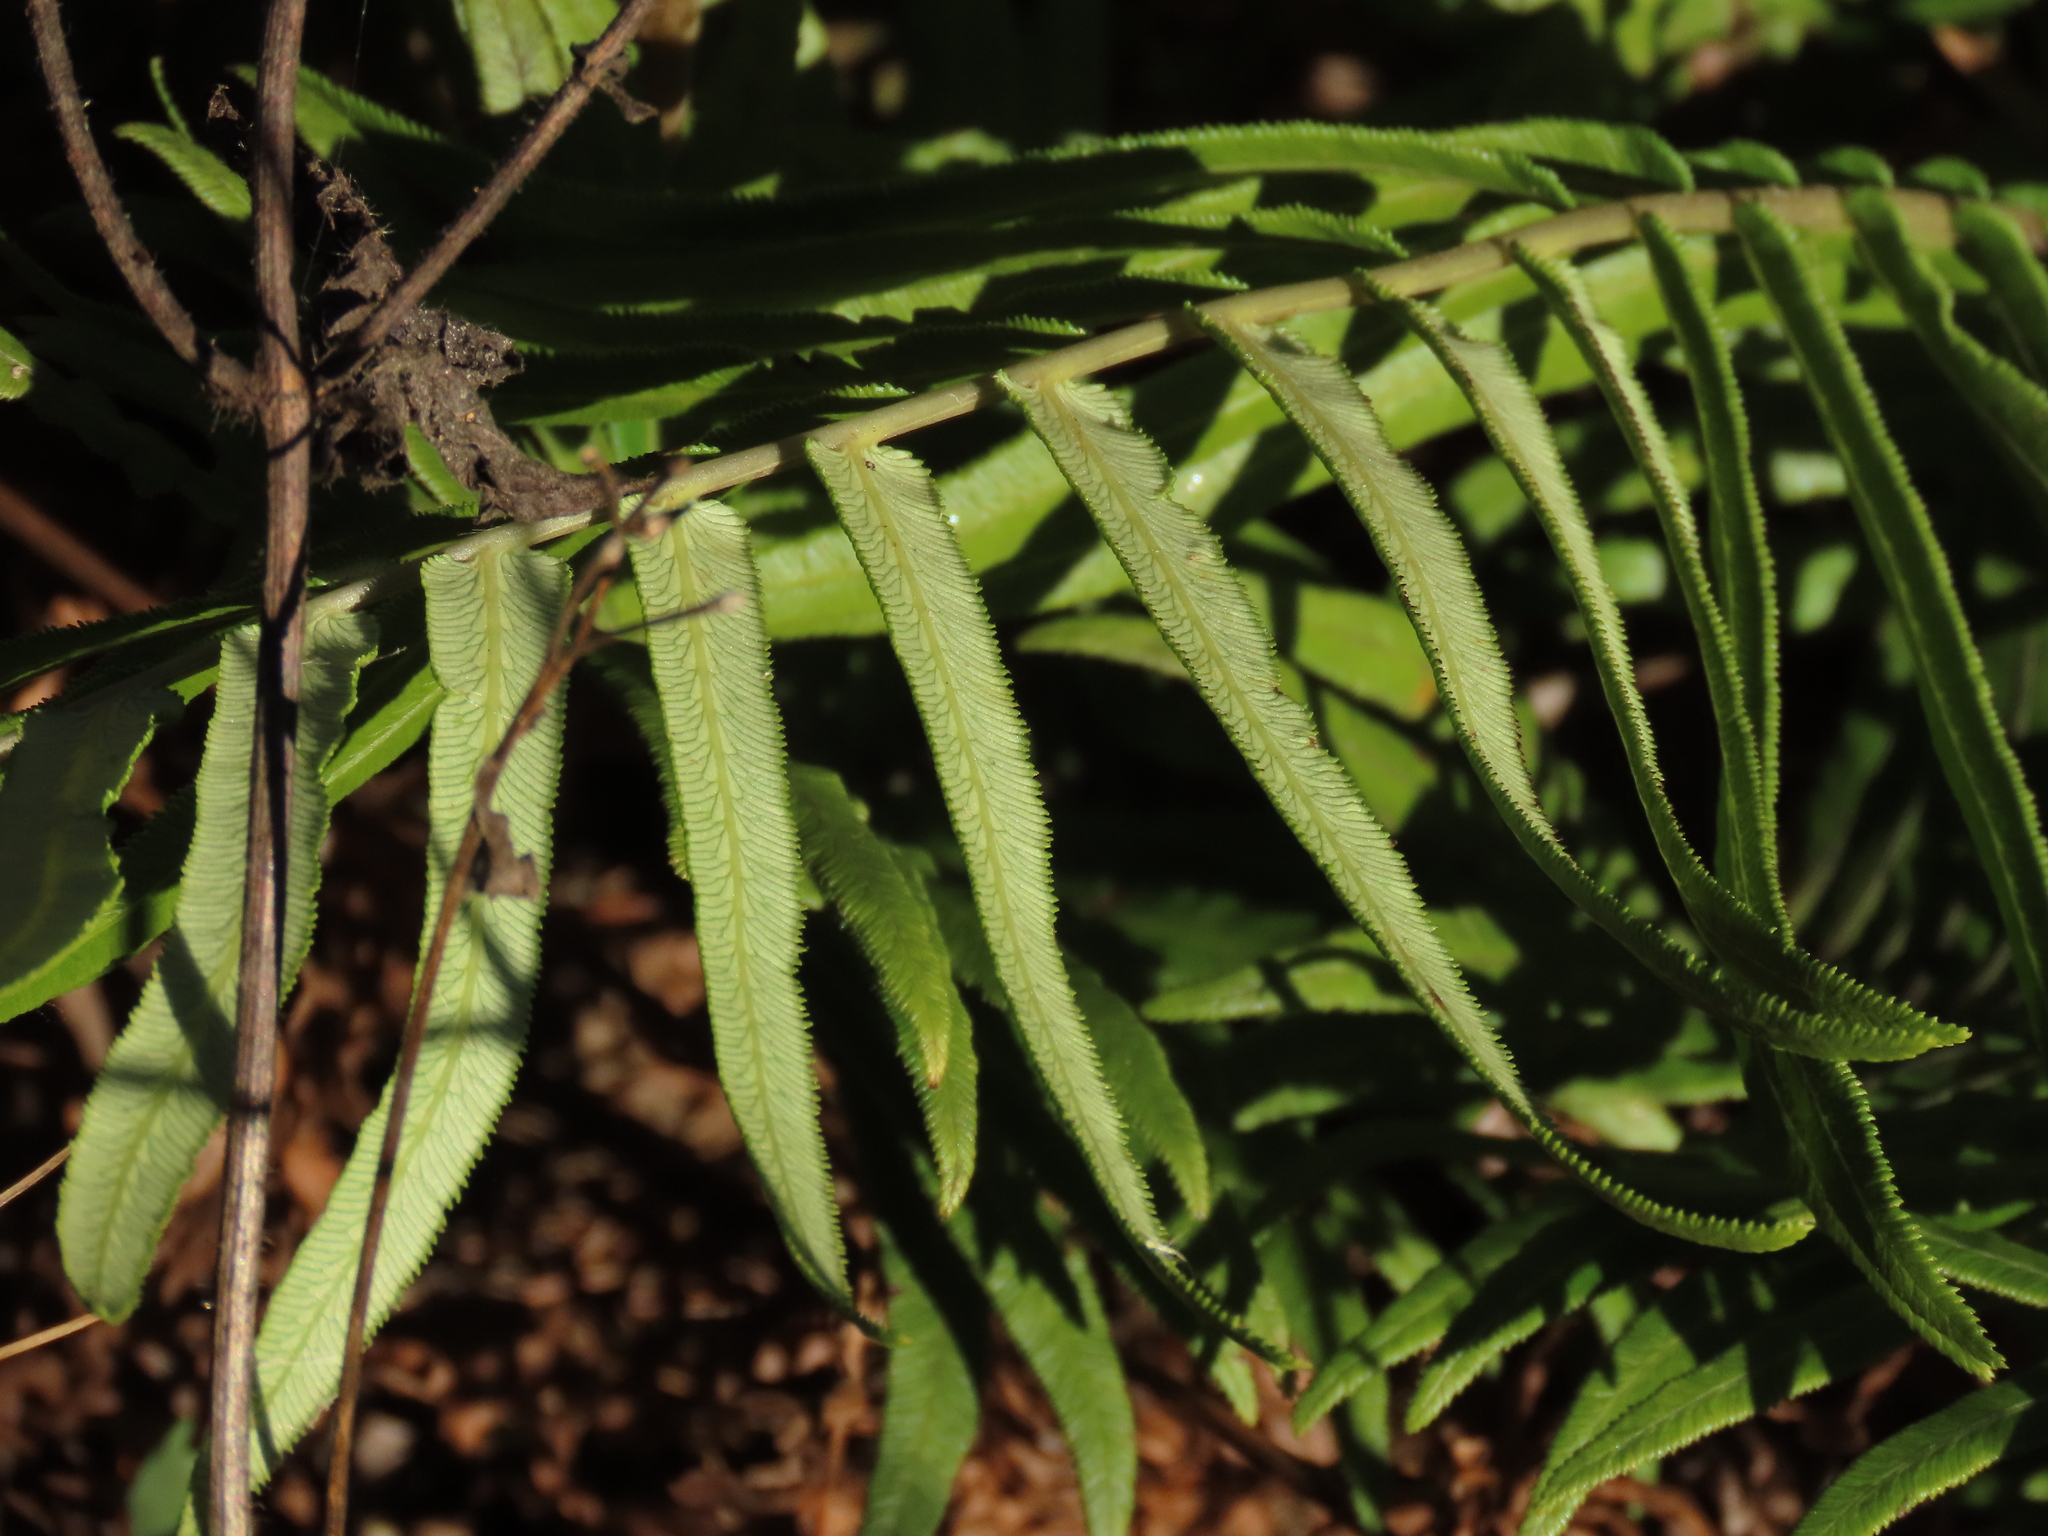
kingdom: Plantae
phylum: Tracheophyta
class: Polypodiopsida
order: Polypodiales
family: Blechnaceae
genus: Brainea
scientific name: Brainea insignis
